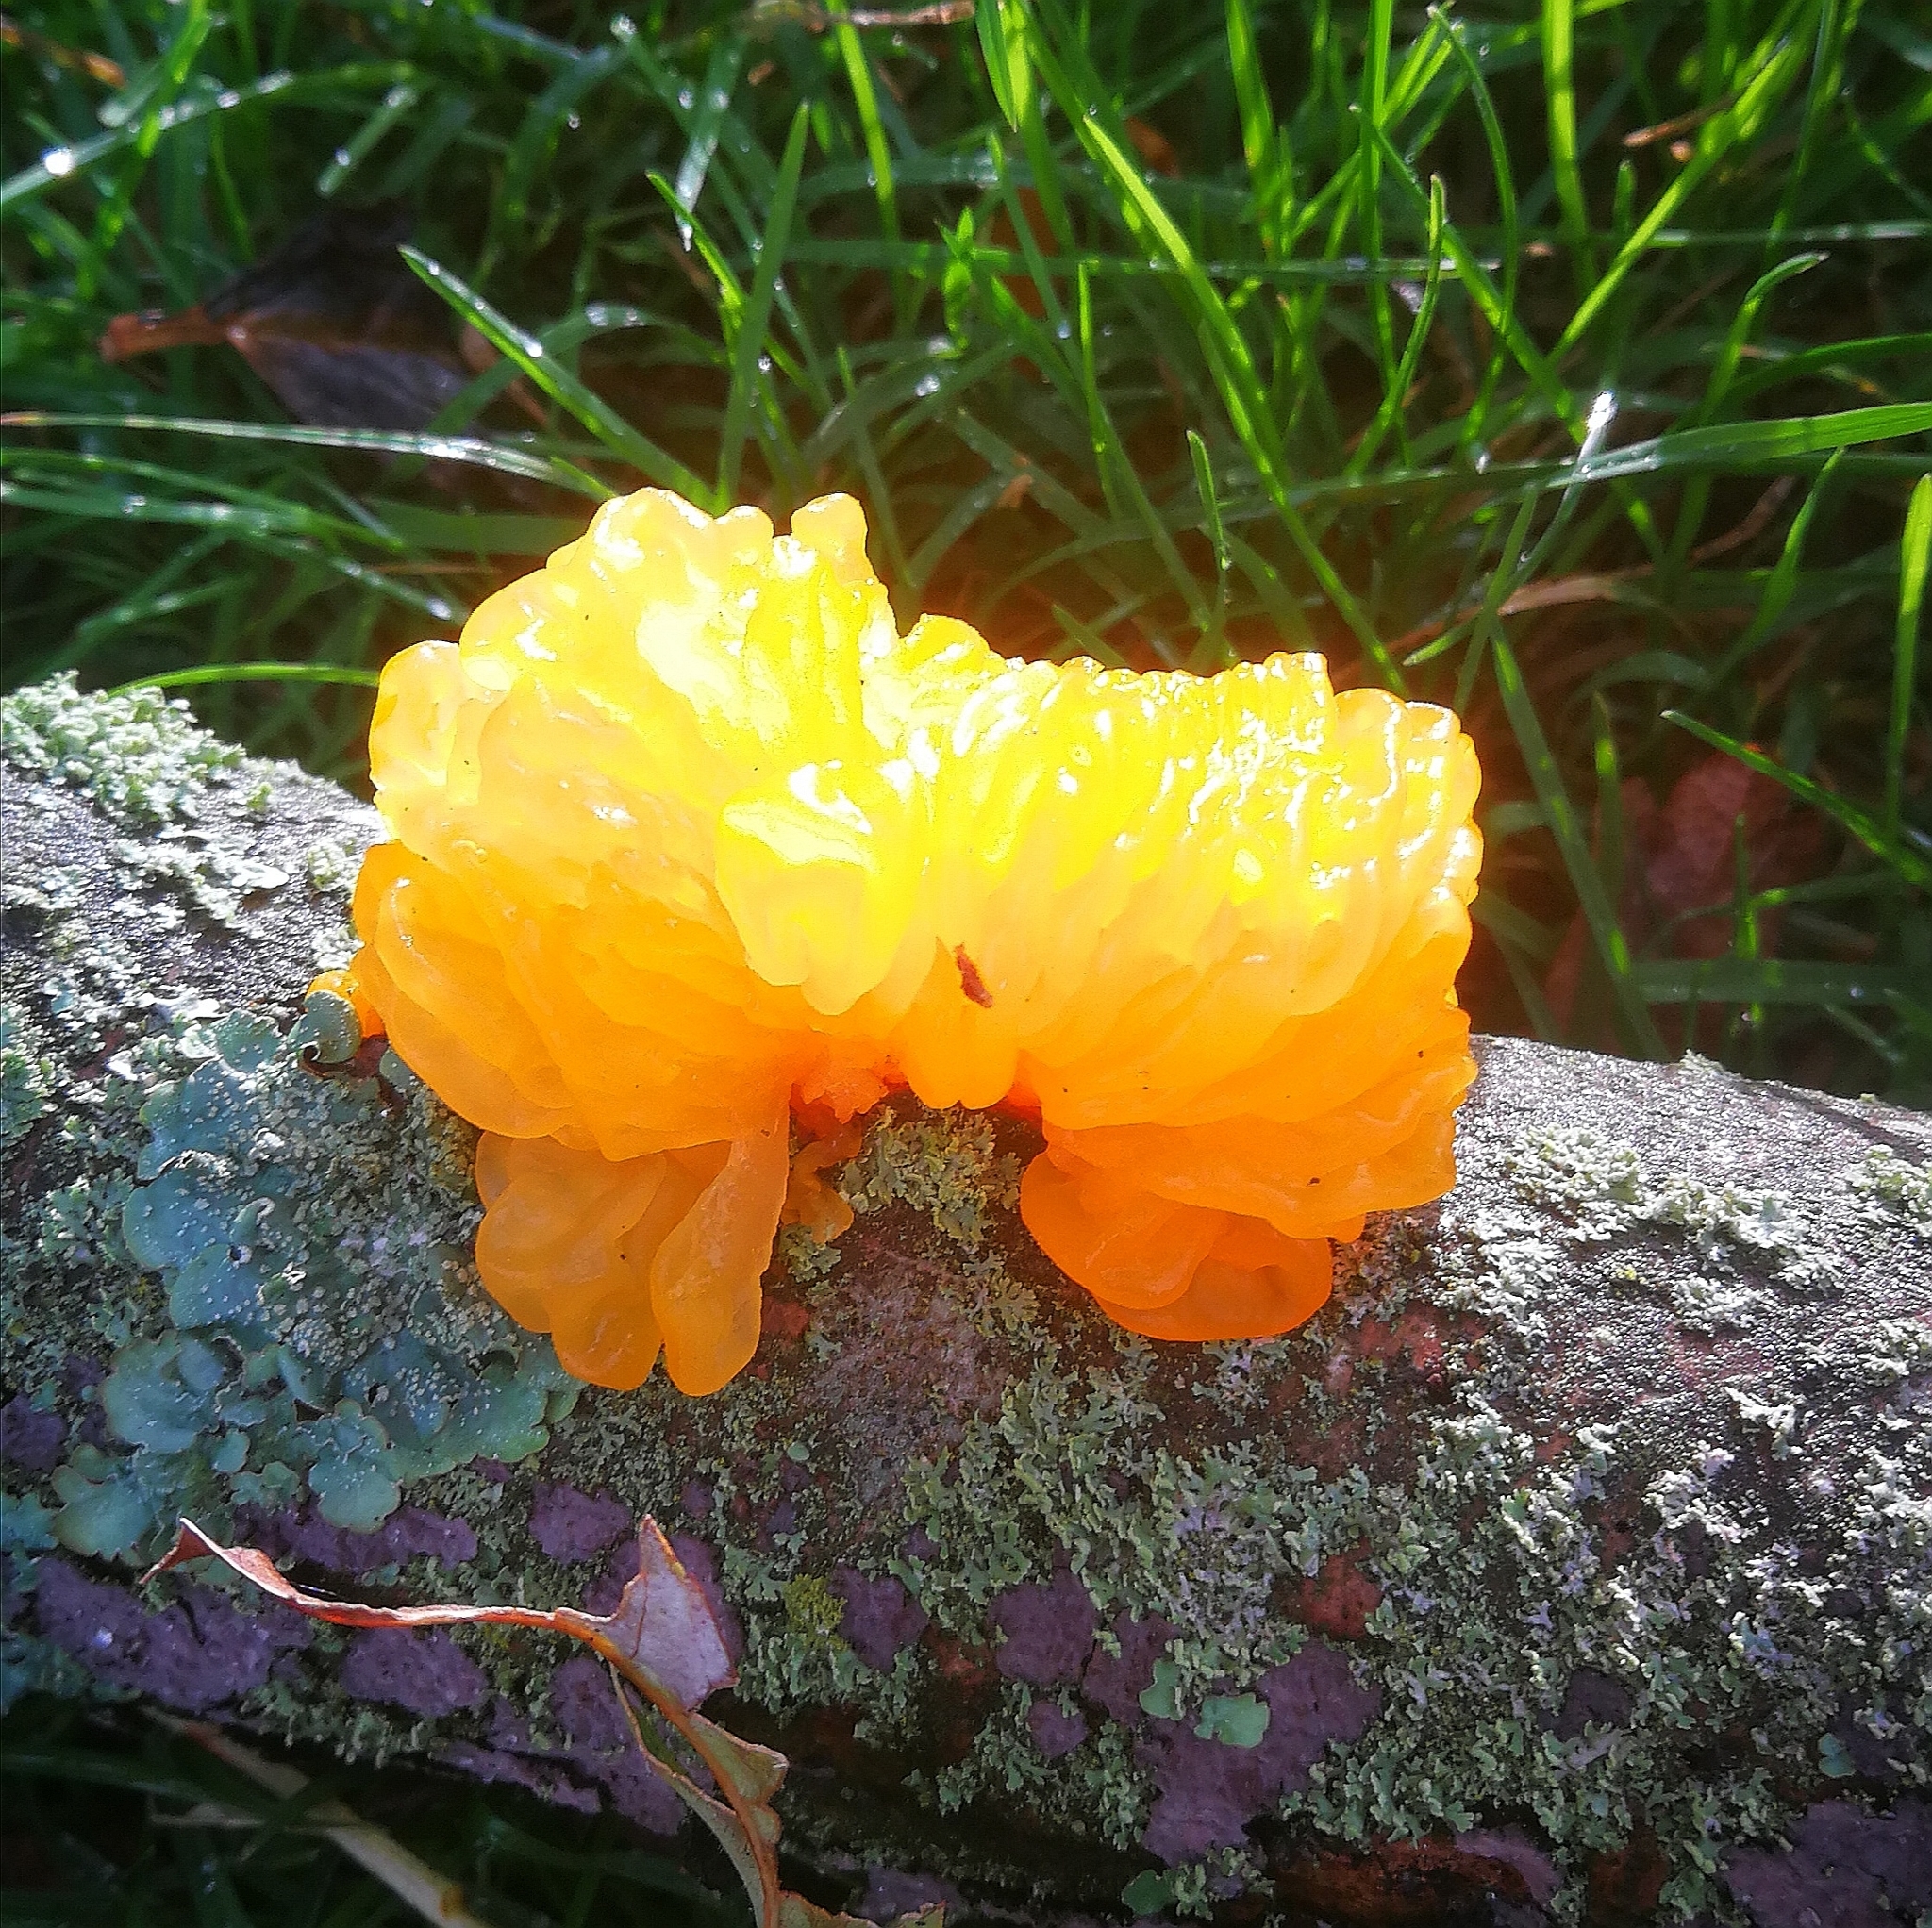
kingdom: Fungi
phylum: Basidiomycota
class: Tremellomycetes
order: Tremellales
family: Tremellaceae
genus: Tremella
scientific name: Tremella mesenterica
